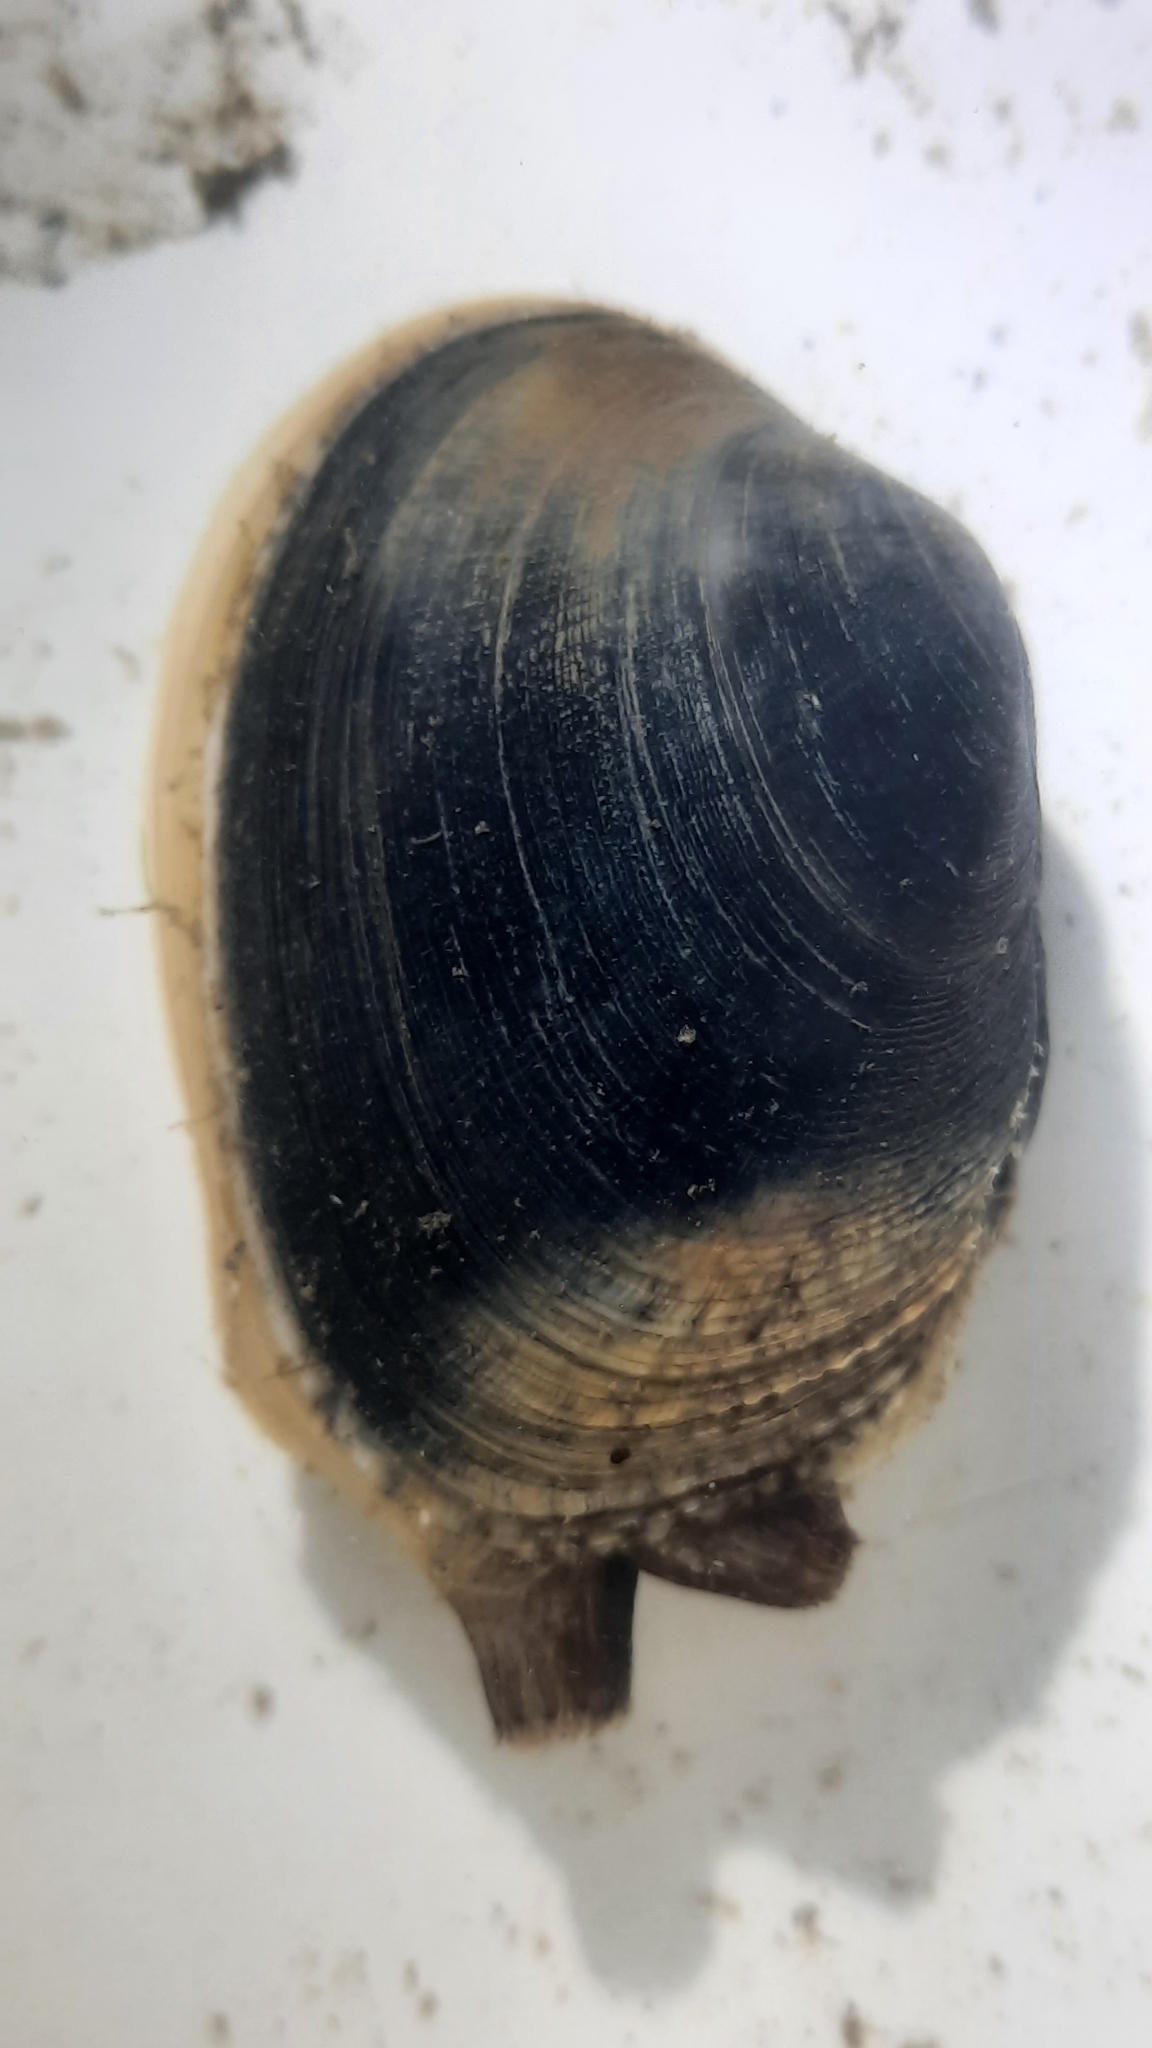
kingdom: Animalia
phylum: Mollusca
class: Bivalvia
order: Venerida
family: Veneridae
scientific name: Veneridae
